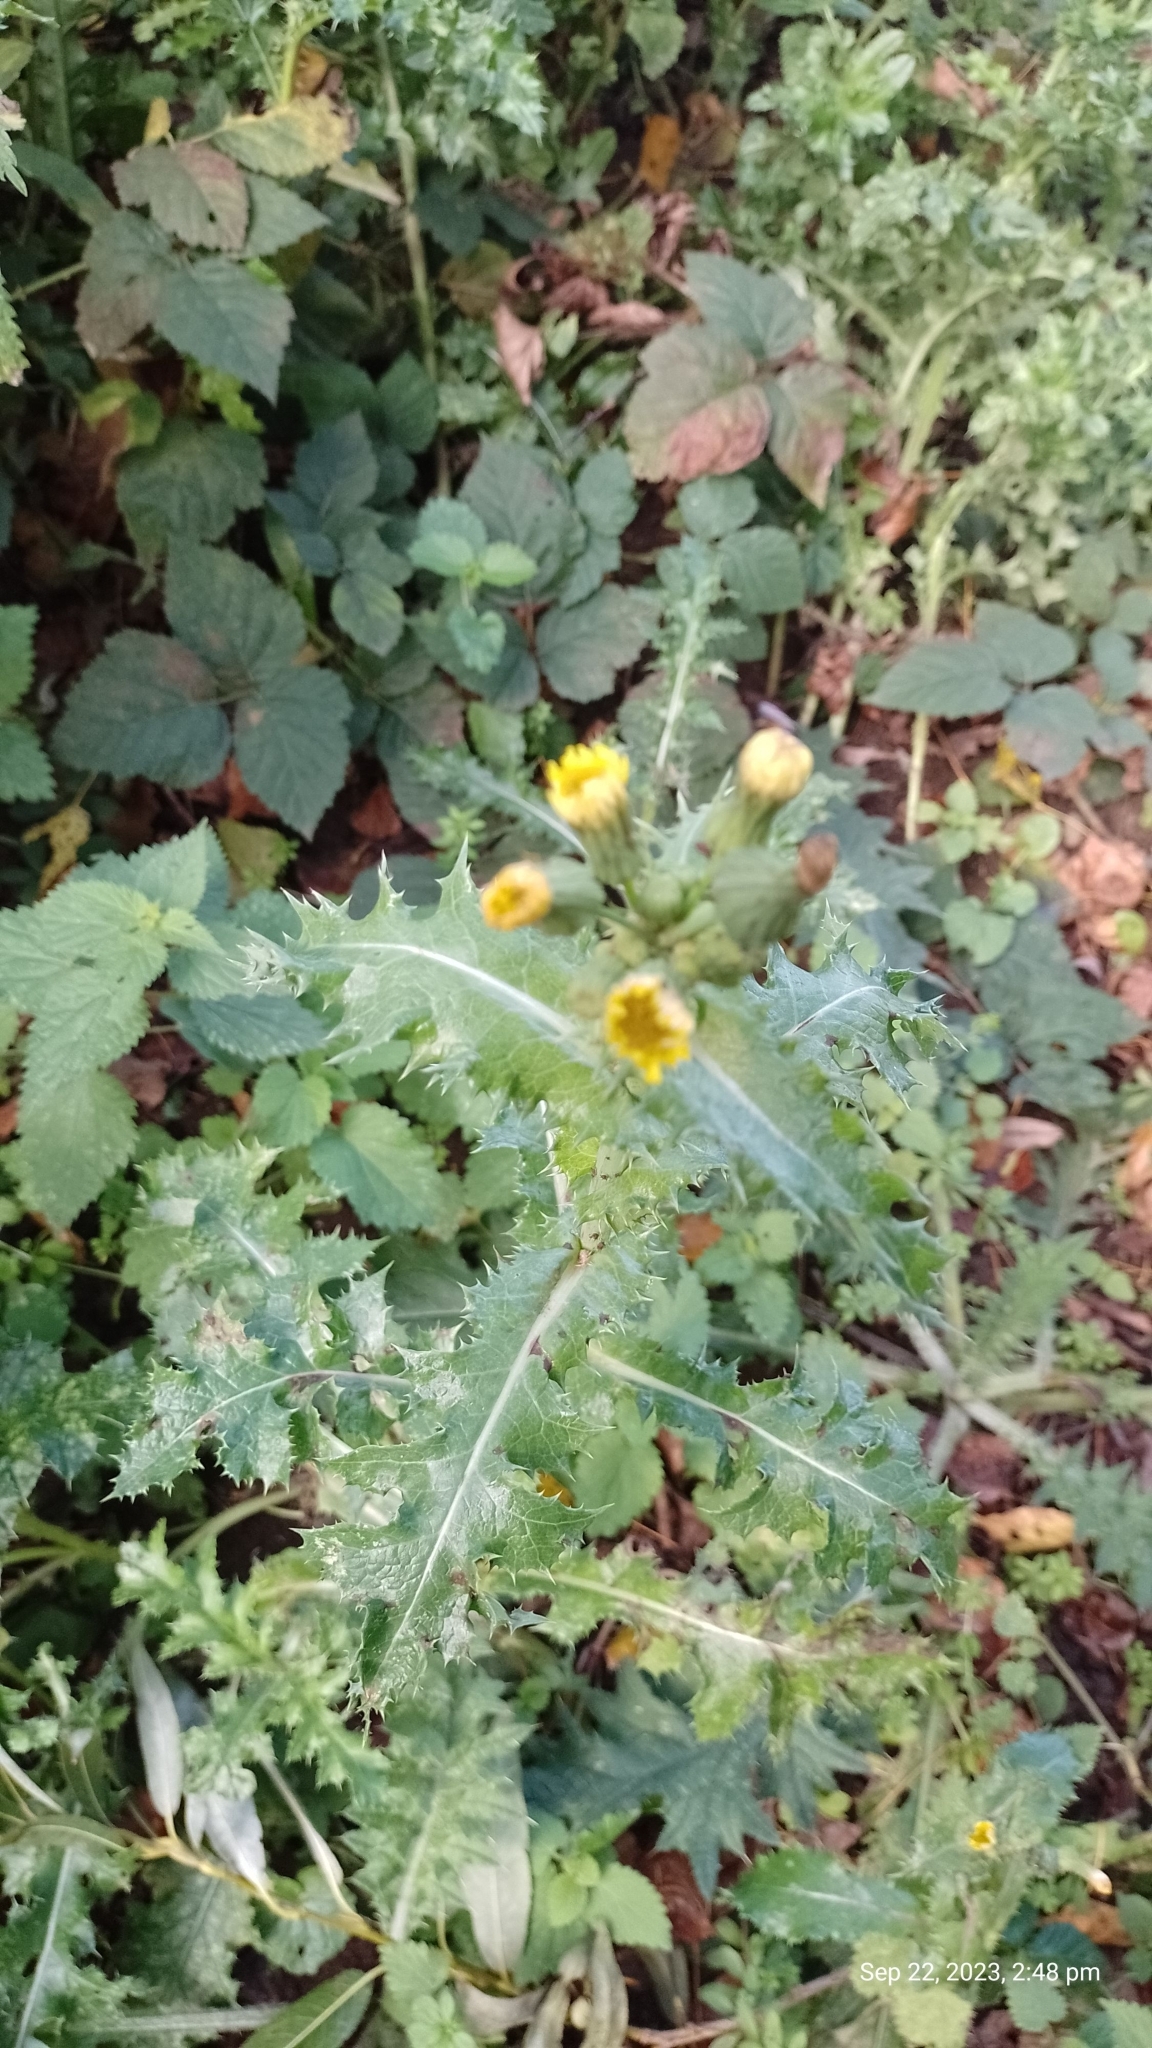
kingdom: Plantae
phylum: Tracheophyta
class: Magnoliopsida
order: Asterales
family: Asteraceae
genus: Sonchus
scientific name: Sonchus asper
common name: Prickly sow-thistle
